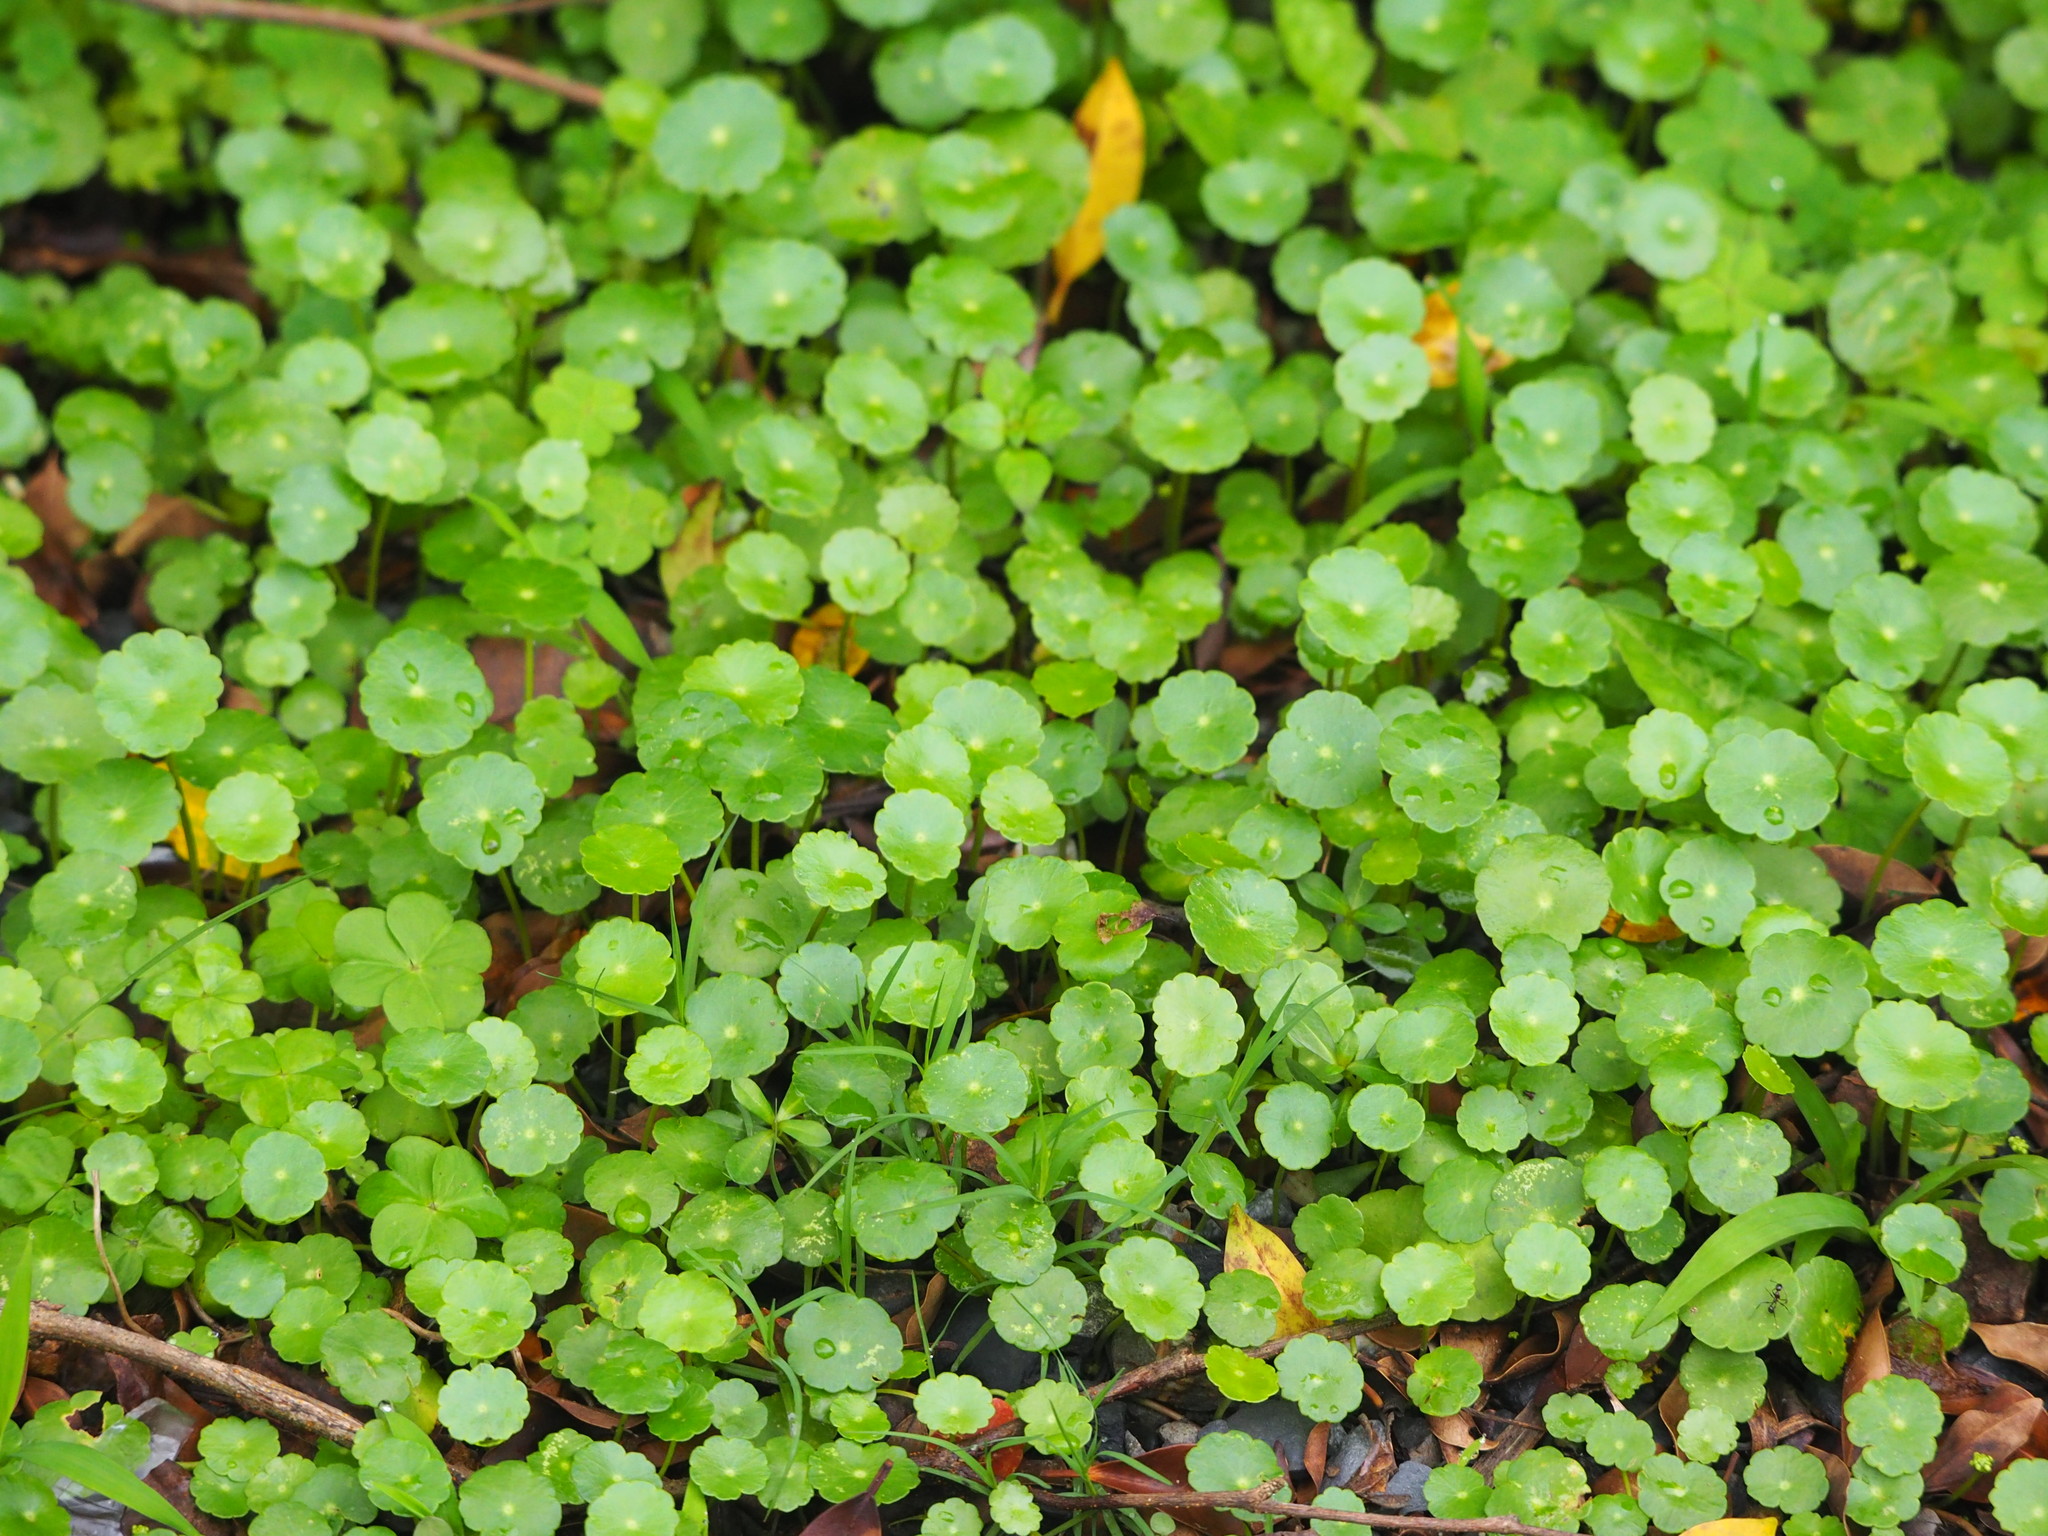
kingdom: Plantae
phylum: Tracheophyta
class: Magnoliopsida
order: Apiales
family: Araliaceae
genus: Hydrocotyle
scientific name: Hydrocotyle verticillata
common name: Whorled marshpennywort
